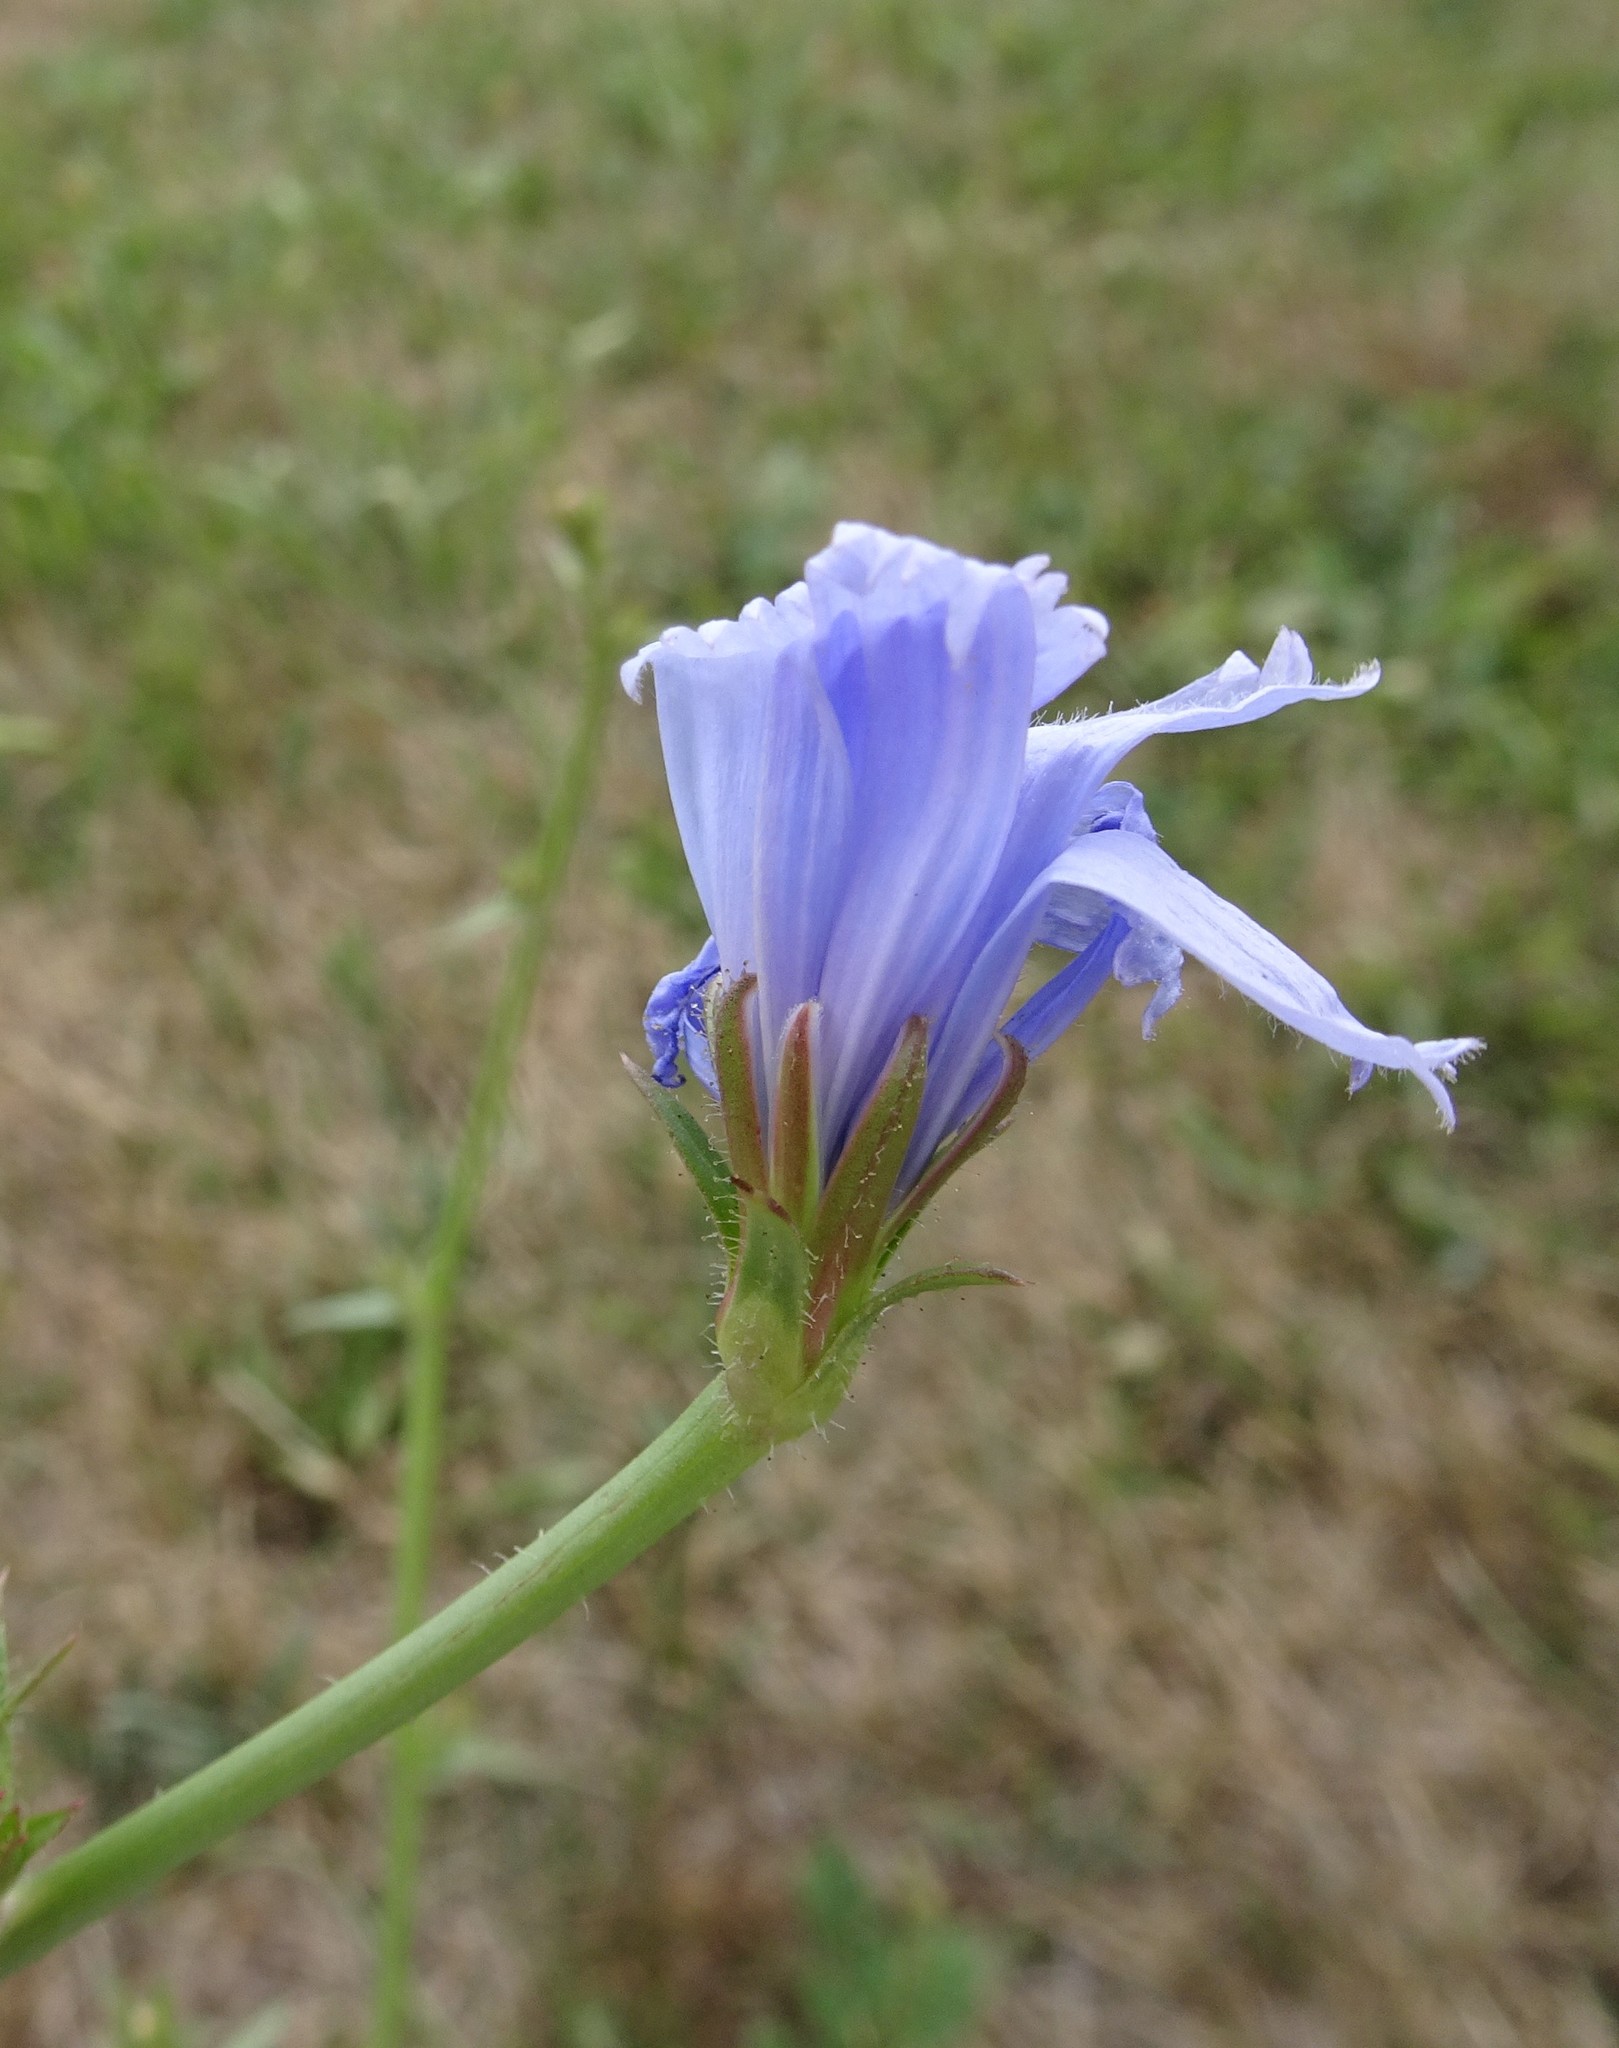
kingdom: Plantae
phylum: Tracheophyta
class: Magnoliopsida
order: Asterales
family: Asteraceae
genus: Cichorium
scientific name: Cichorium intybus
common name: Chicory
